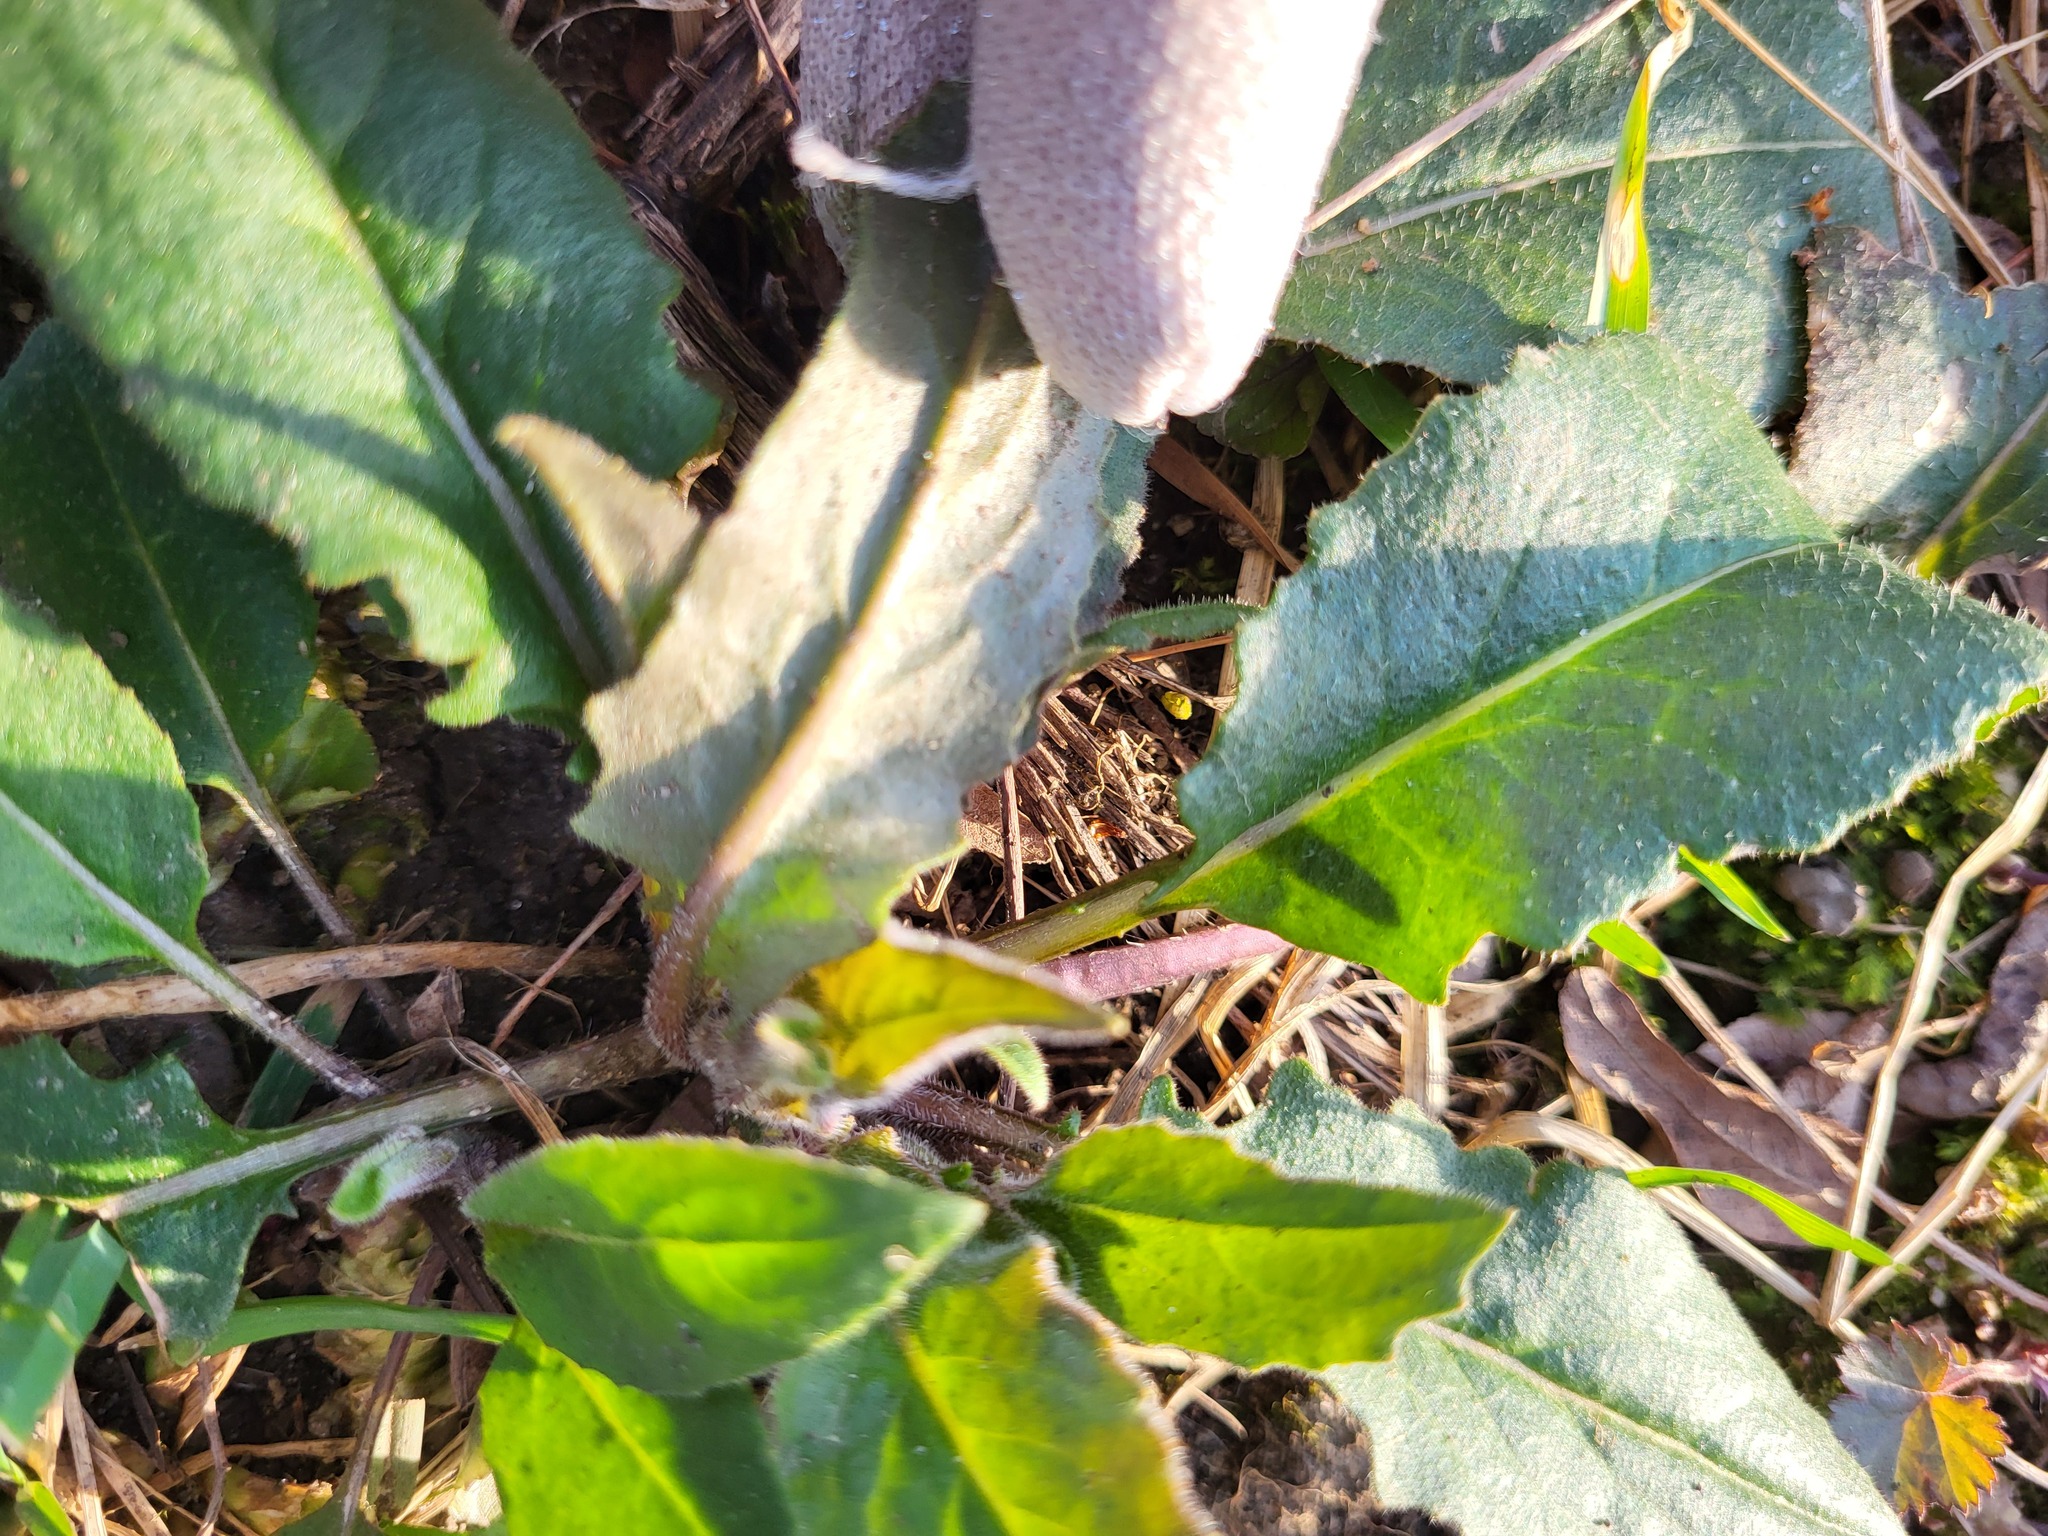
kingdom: Plantae
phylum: Tracheophyta
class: Magnoliopsida
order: Brassicales
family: Brassicaceae
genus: Hesperis
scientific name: Hesperis matronalis
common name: Dame's-violet
